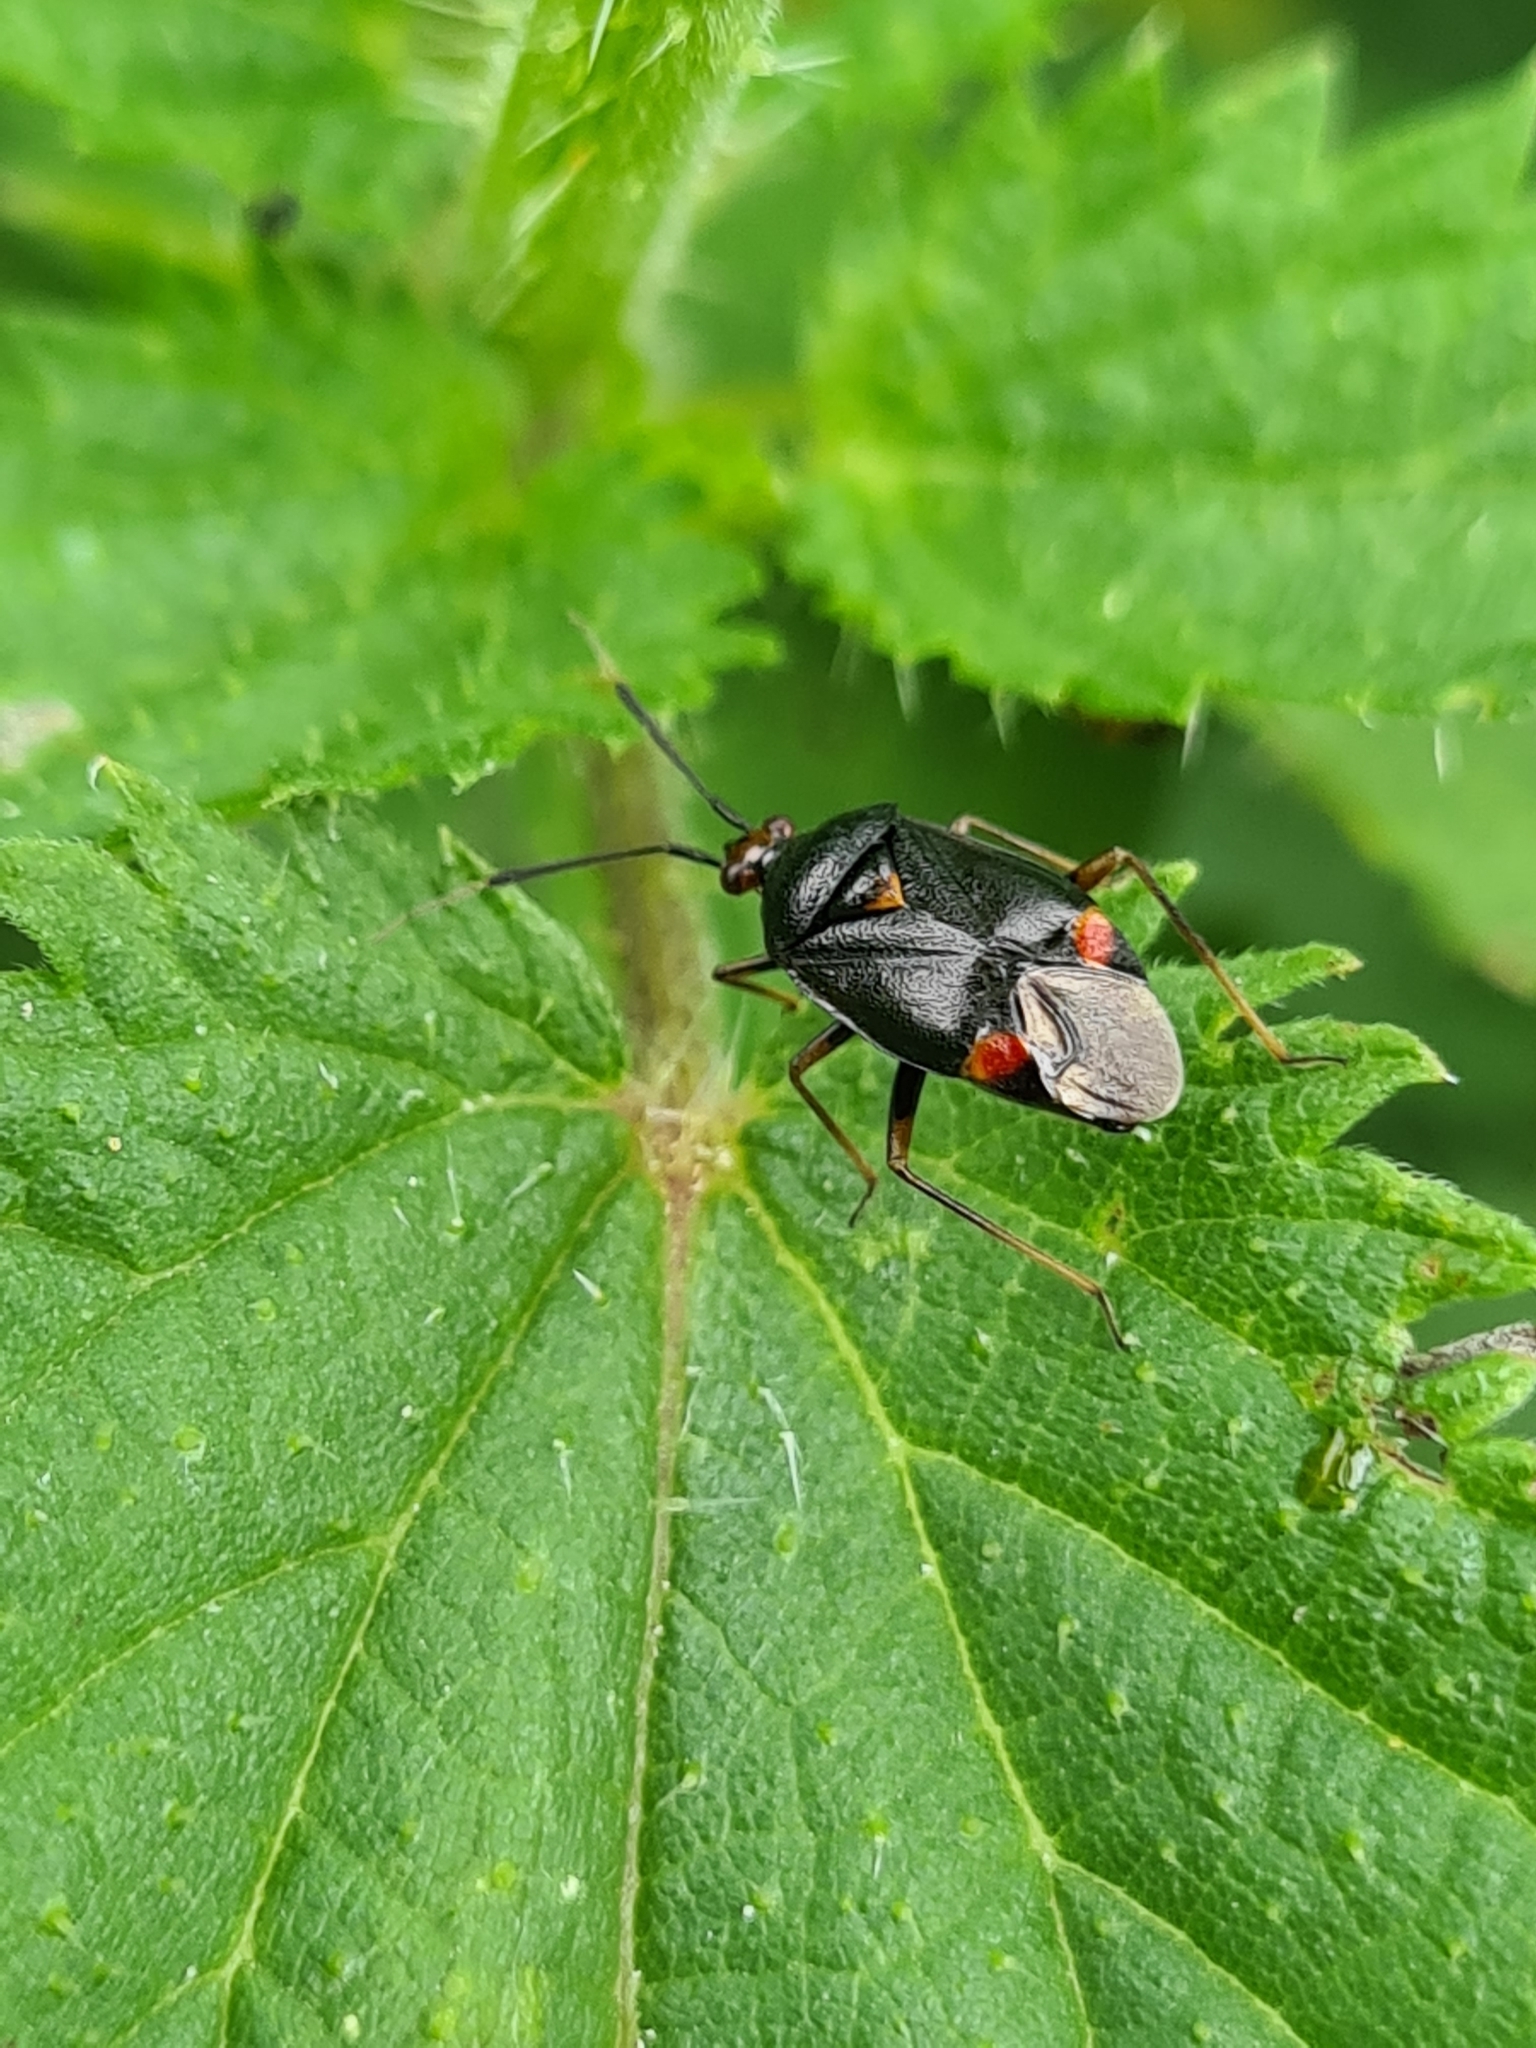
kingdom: Animalia
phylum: Arthropoda
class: Insecta
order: Hemiptera
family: Miridae
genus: Deraeocoris
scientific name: Deraeocoris ruber
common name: Plant bug
